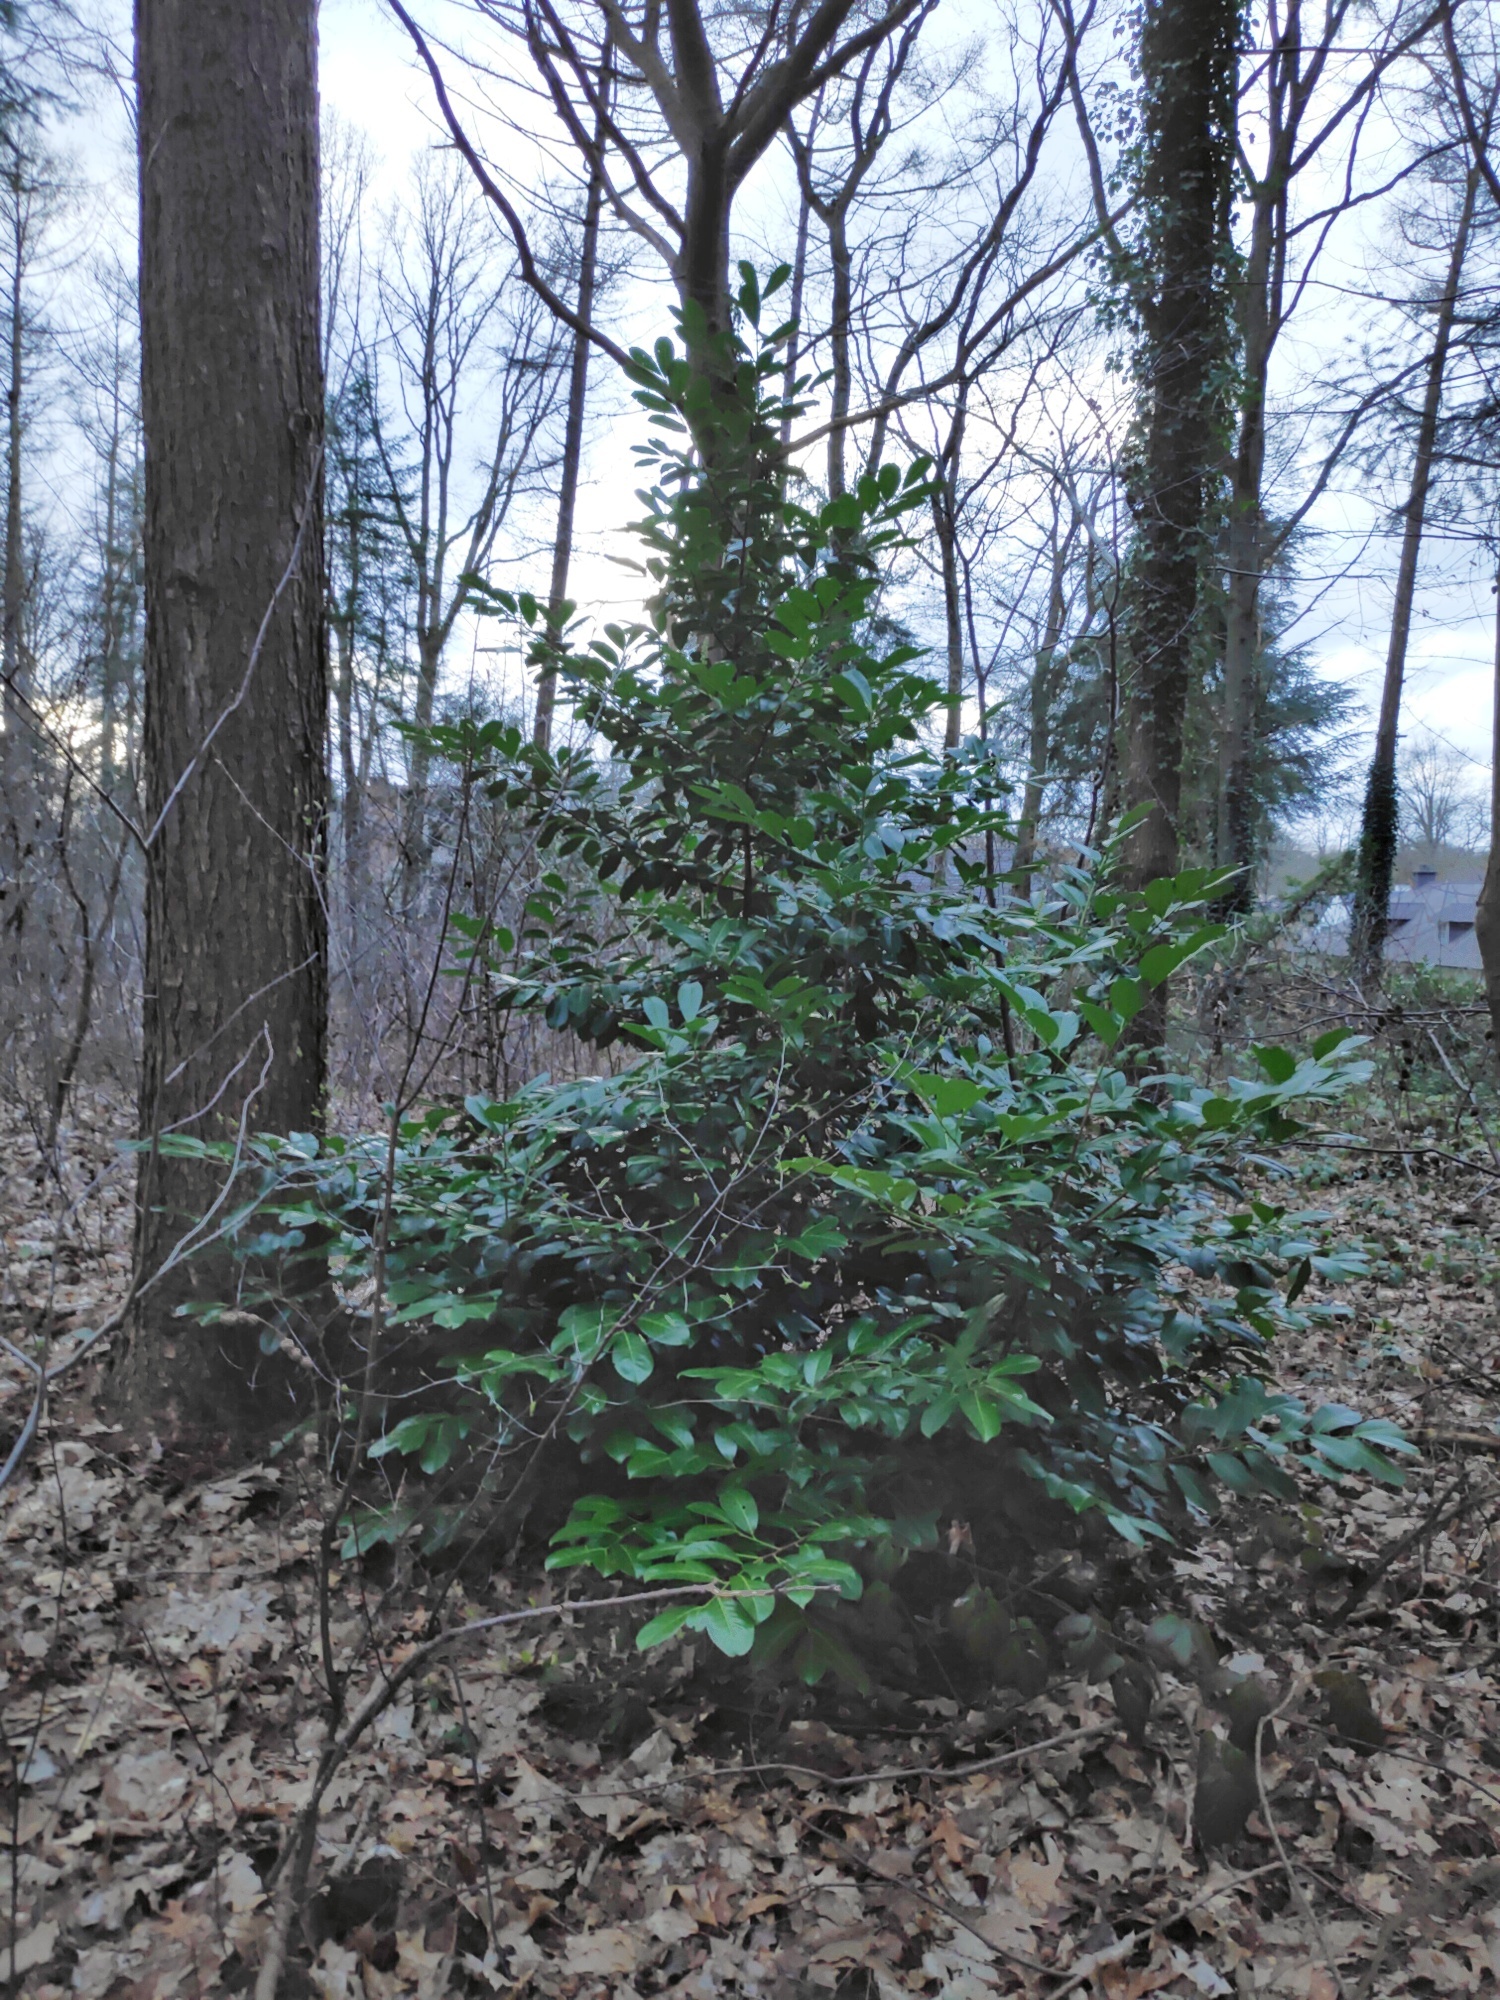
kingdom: Plantae
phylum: Tracheophyta
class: Magnoliopsida
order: Rosales
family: Rosaceae
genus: Prunus
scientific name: Prunus laurocerasus
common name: Cherry laurel
